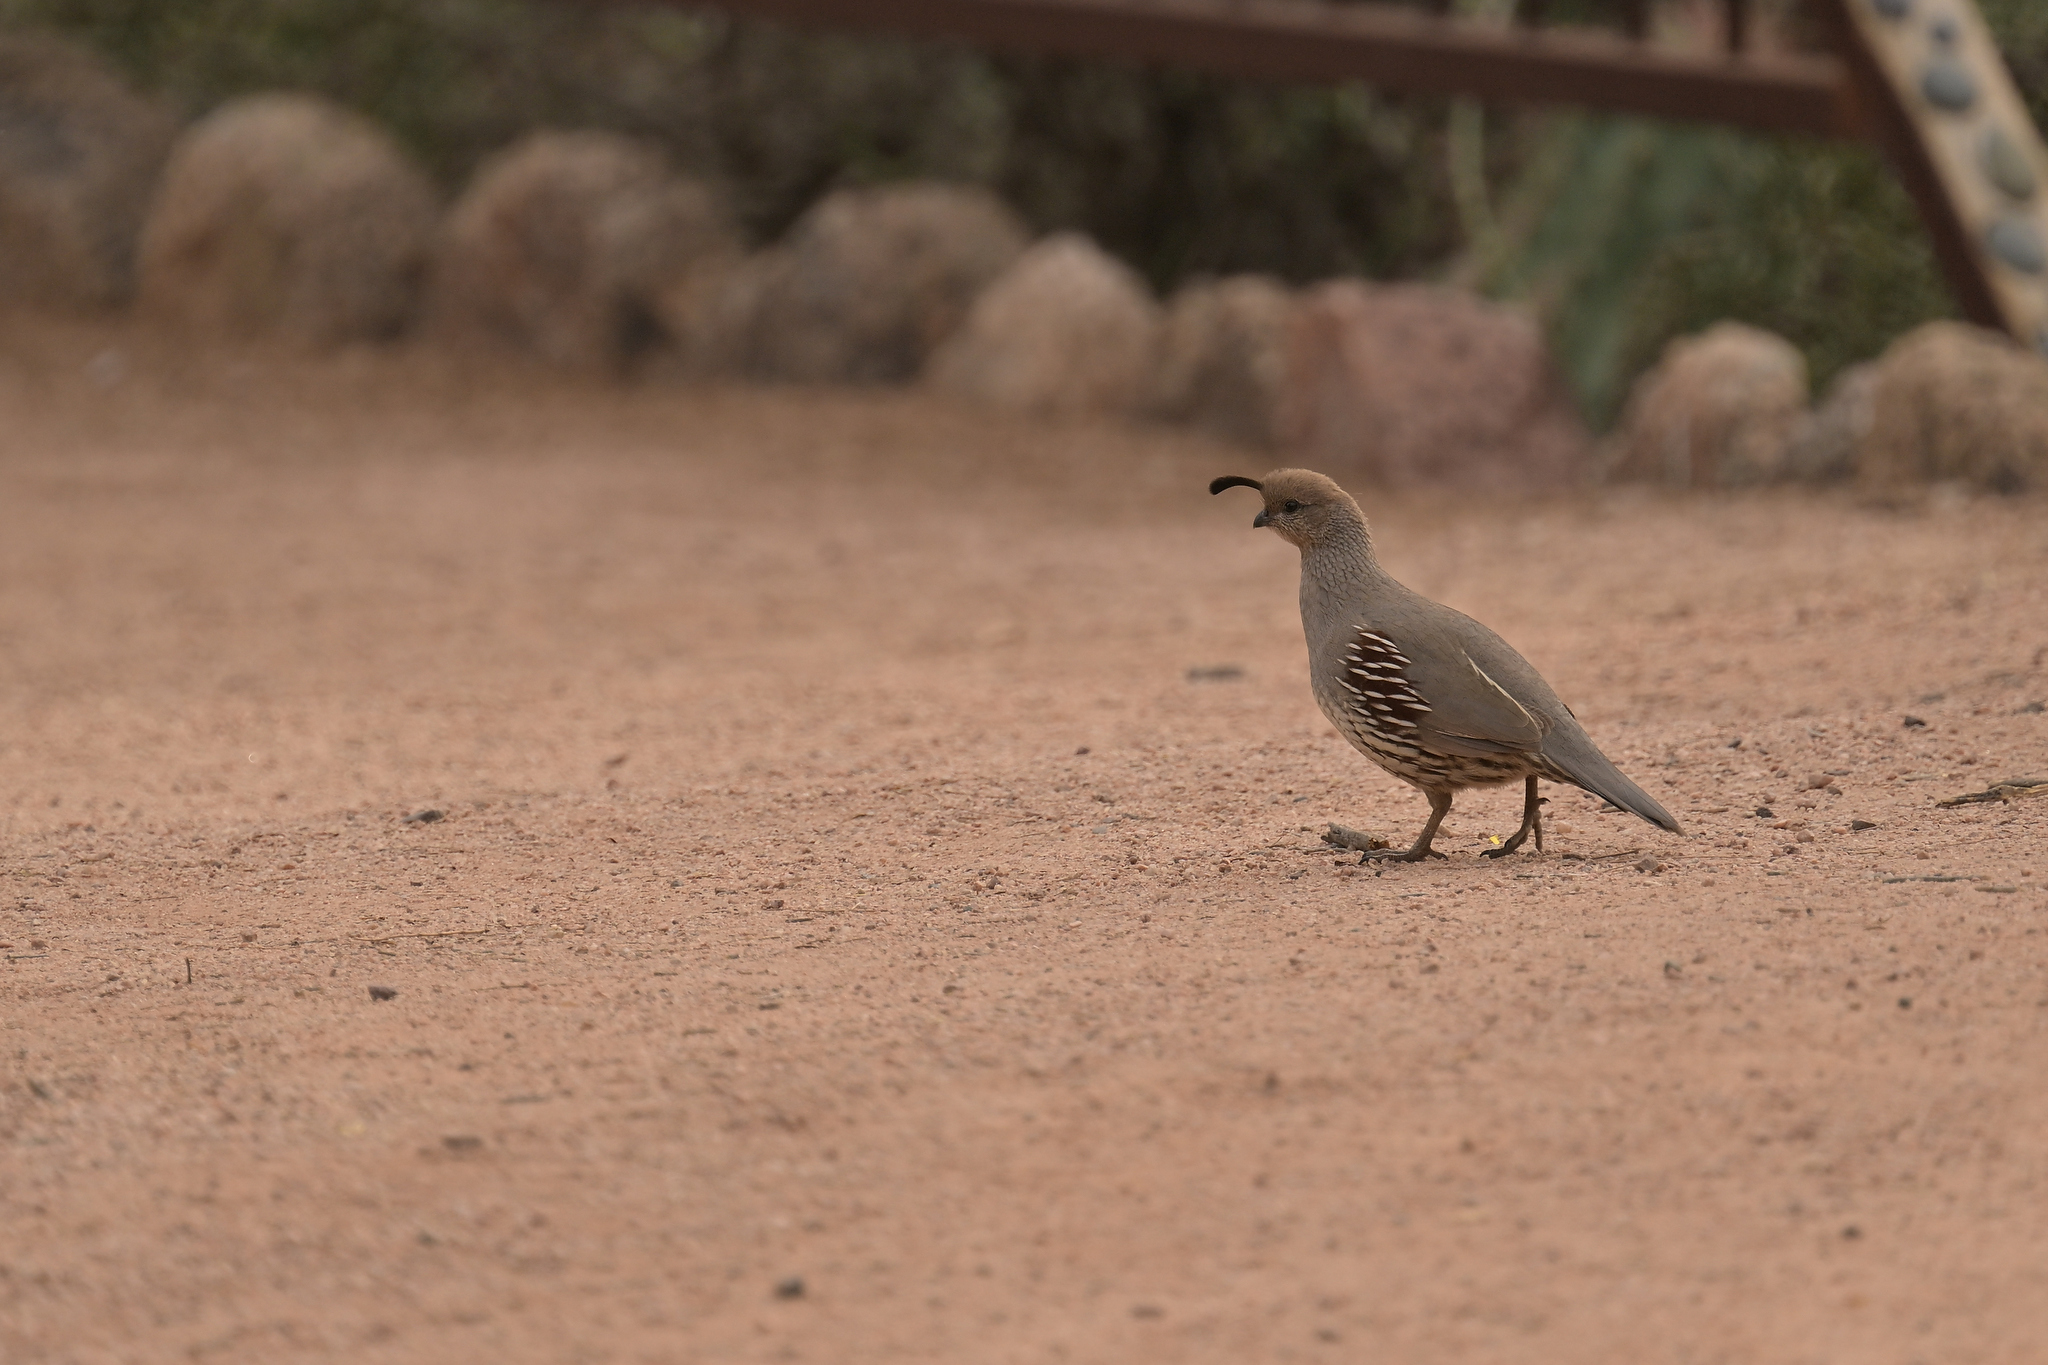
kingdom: Animalia
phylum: Chordata
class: Aves
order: Galliformes
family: Odontophoridae
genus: Callipepla
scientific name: Callipepla gambelii
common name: Gambel's quail
